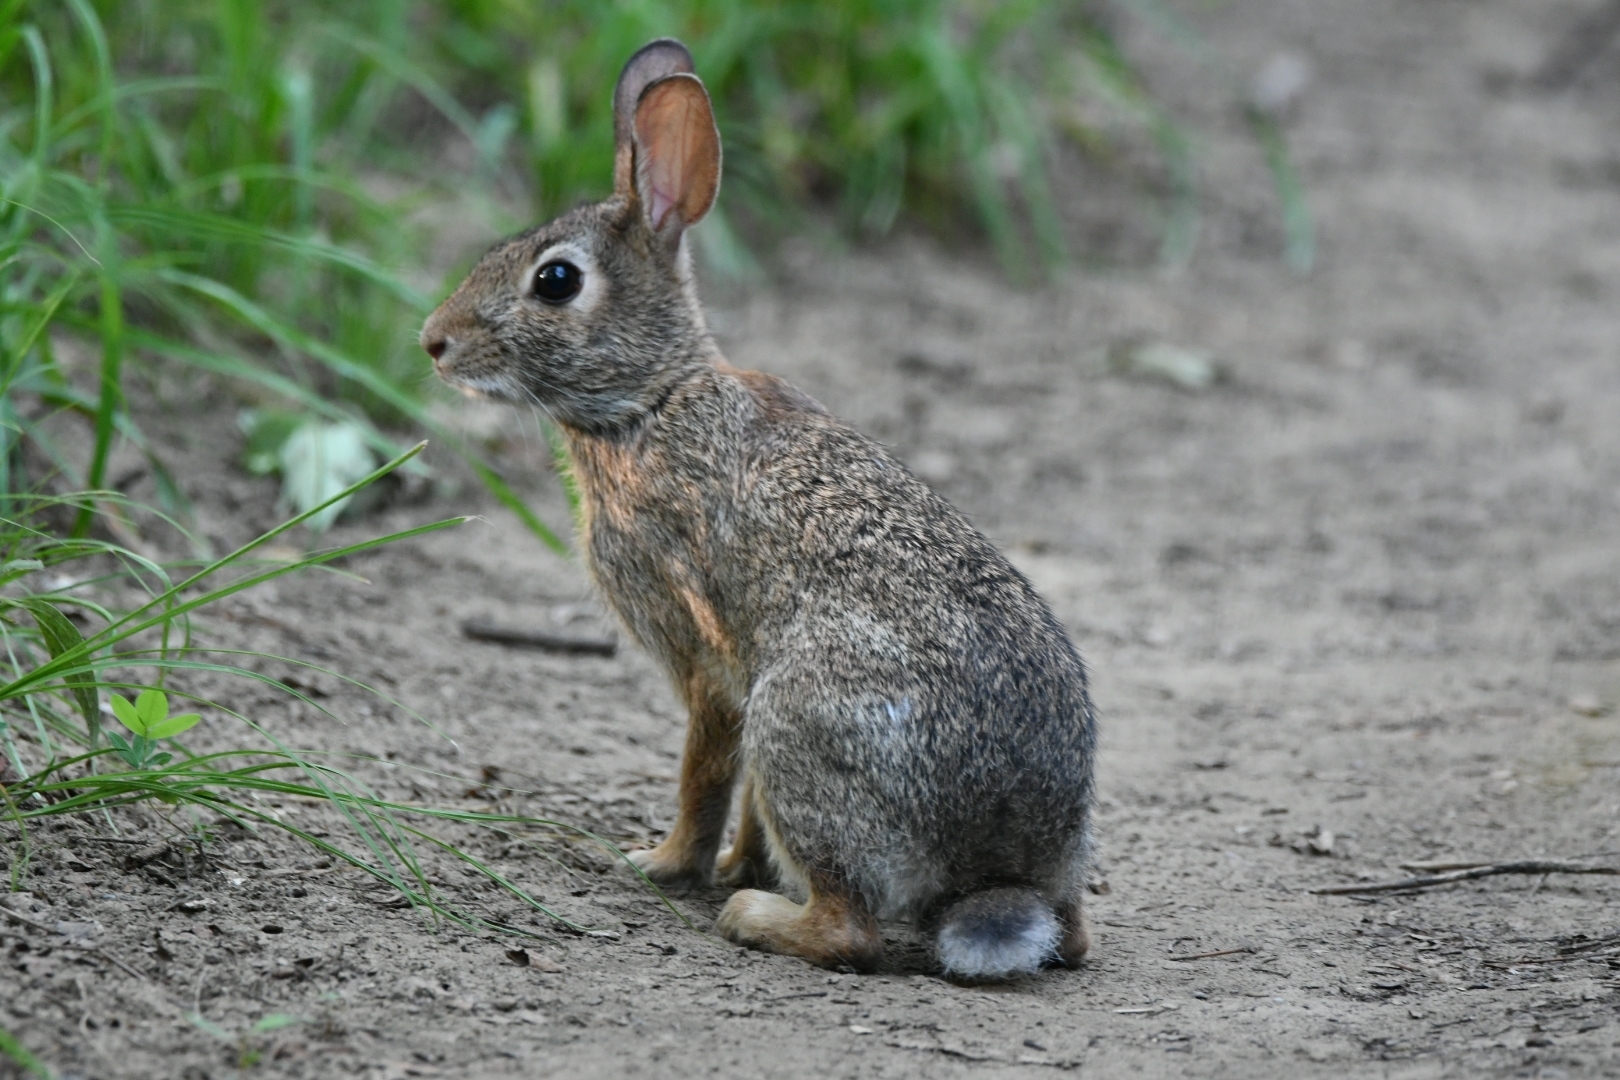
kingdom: Animalia
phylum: Chordata
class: Mammalia
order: Lagomorpha
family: Leporidae
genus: Sylvilagus
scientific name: Sylvilagus floridanus
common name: Eastern cottontail
